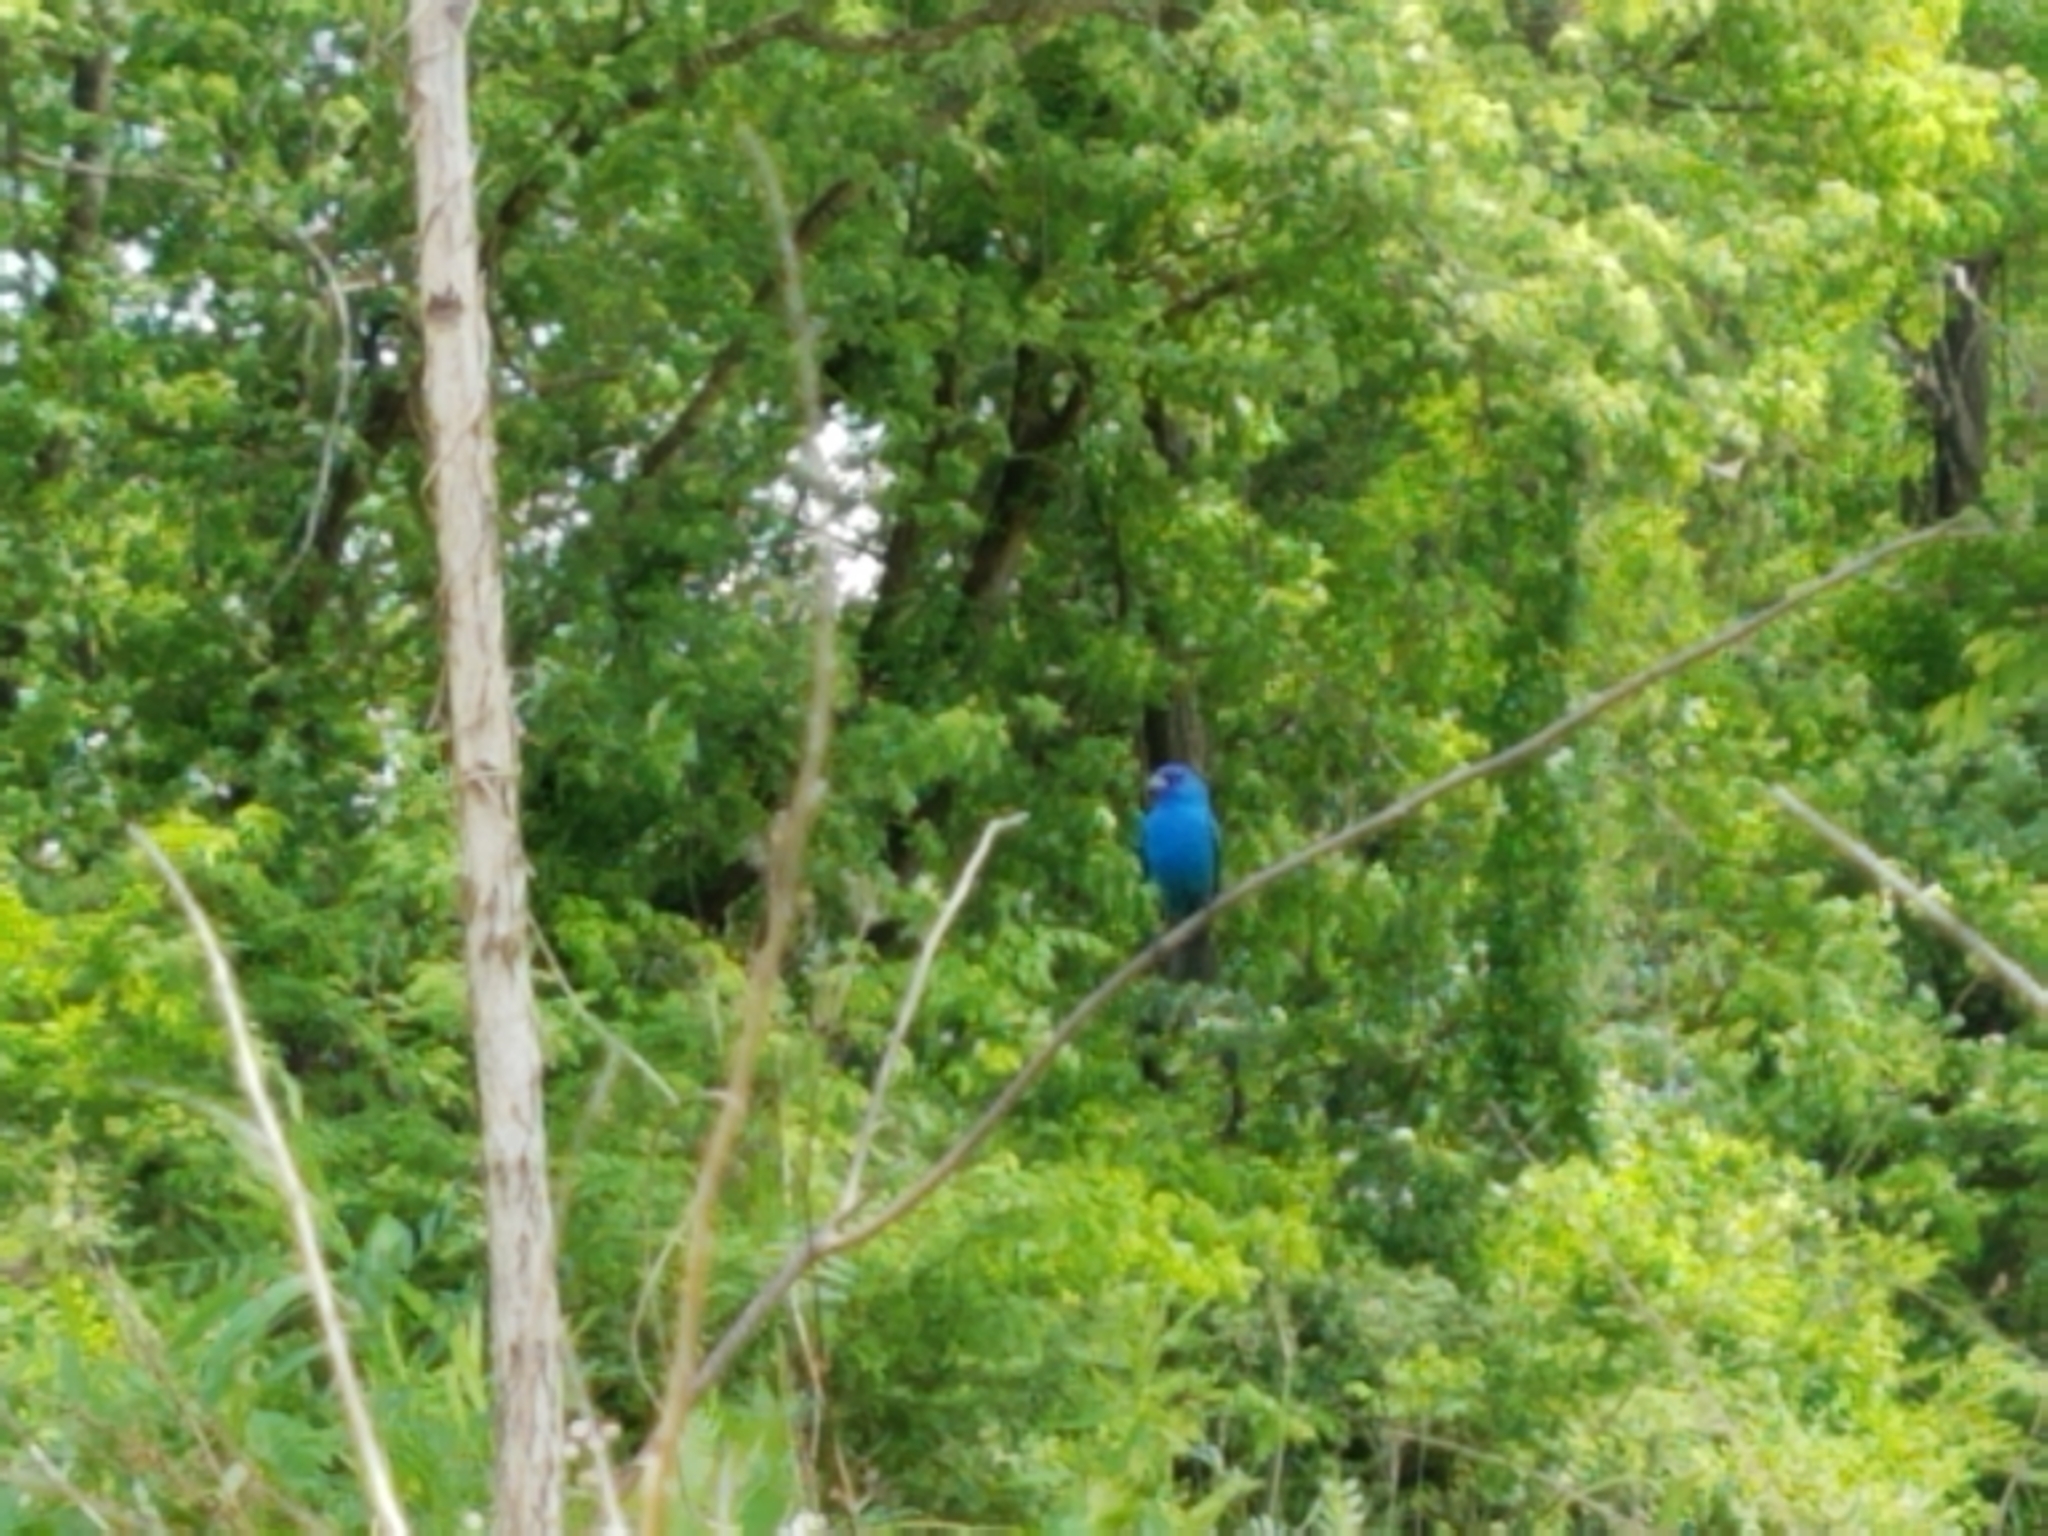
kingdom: Animalia
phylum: Chordata
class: Aves
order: Passeriformes
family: Cardinalidae
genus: Passerina
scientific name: Passerina cyanea
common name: Indigo bunting
